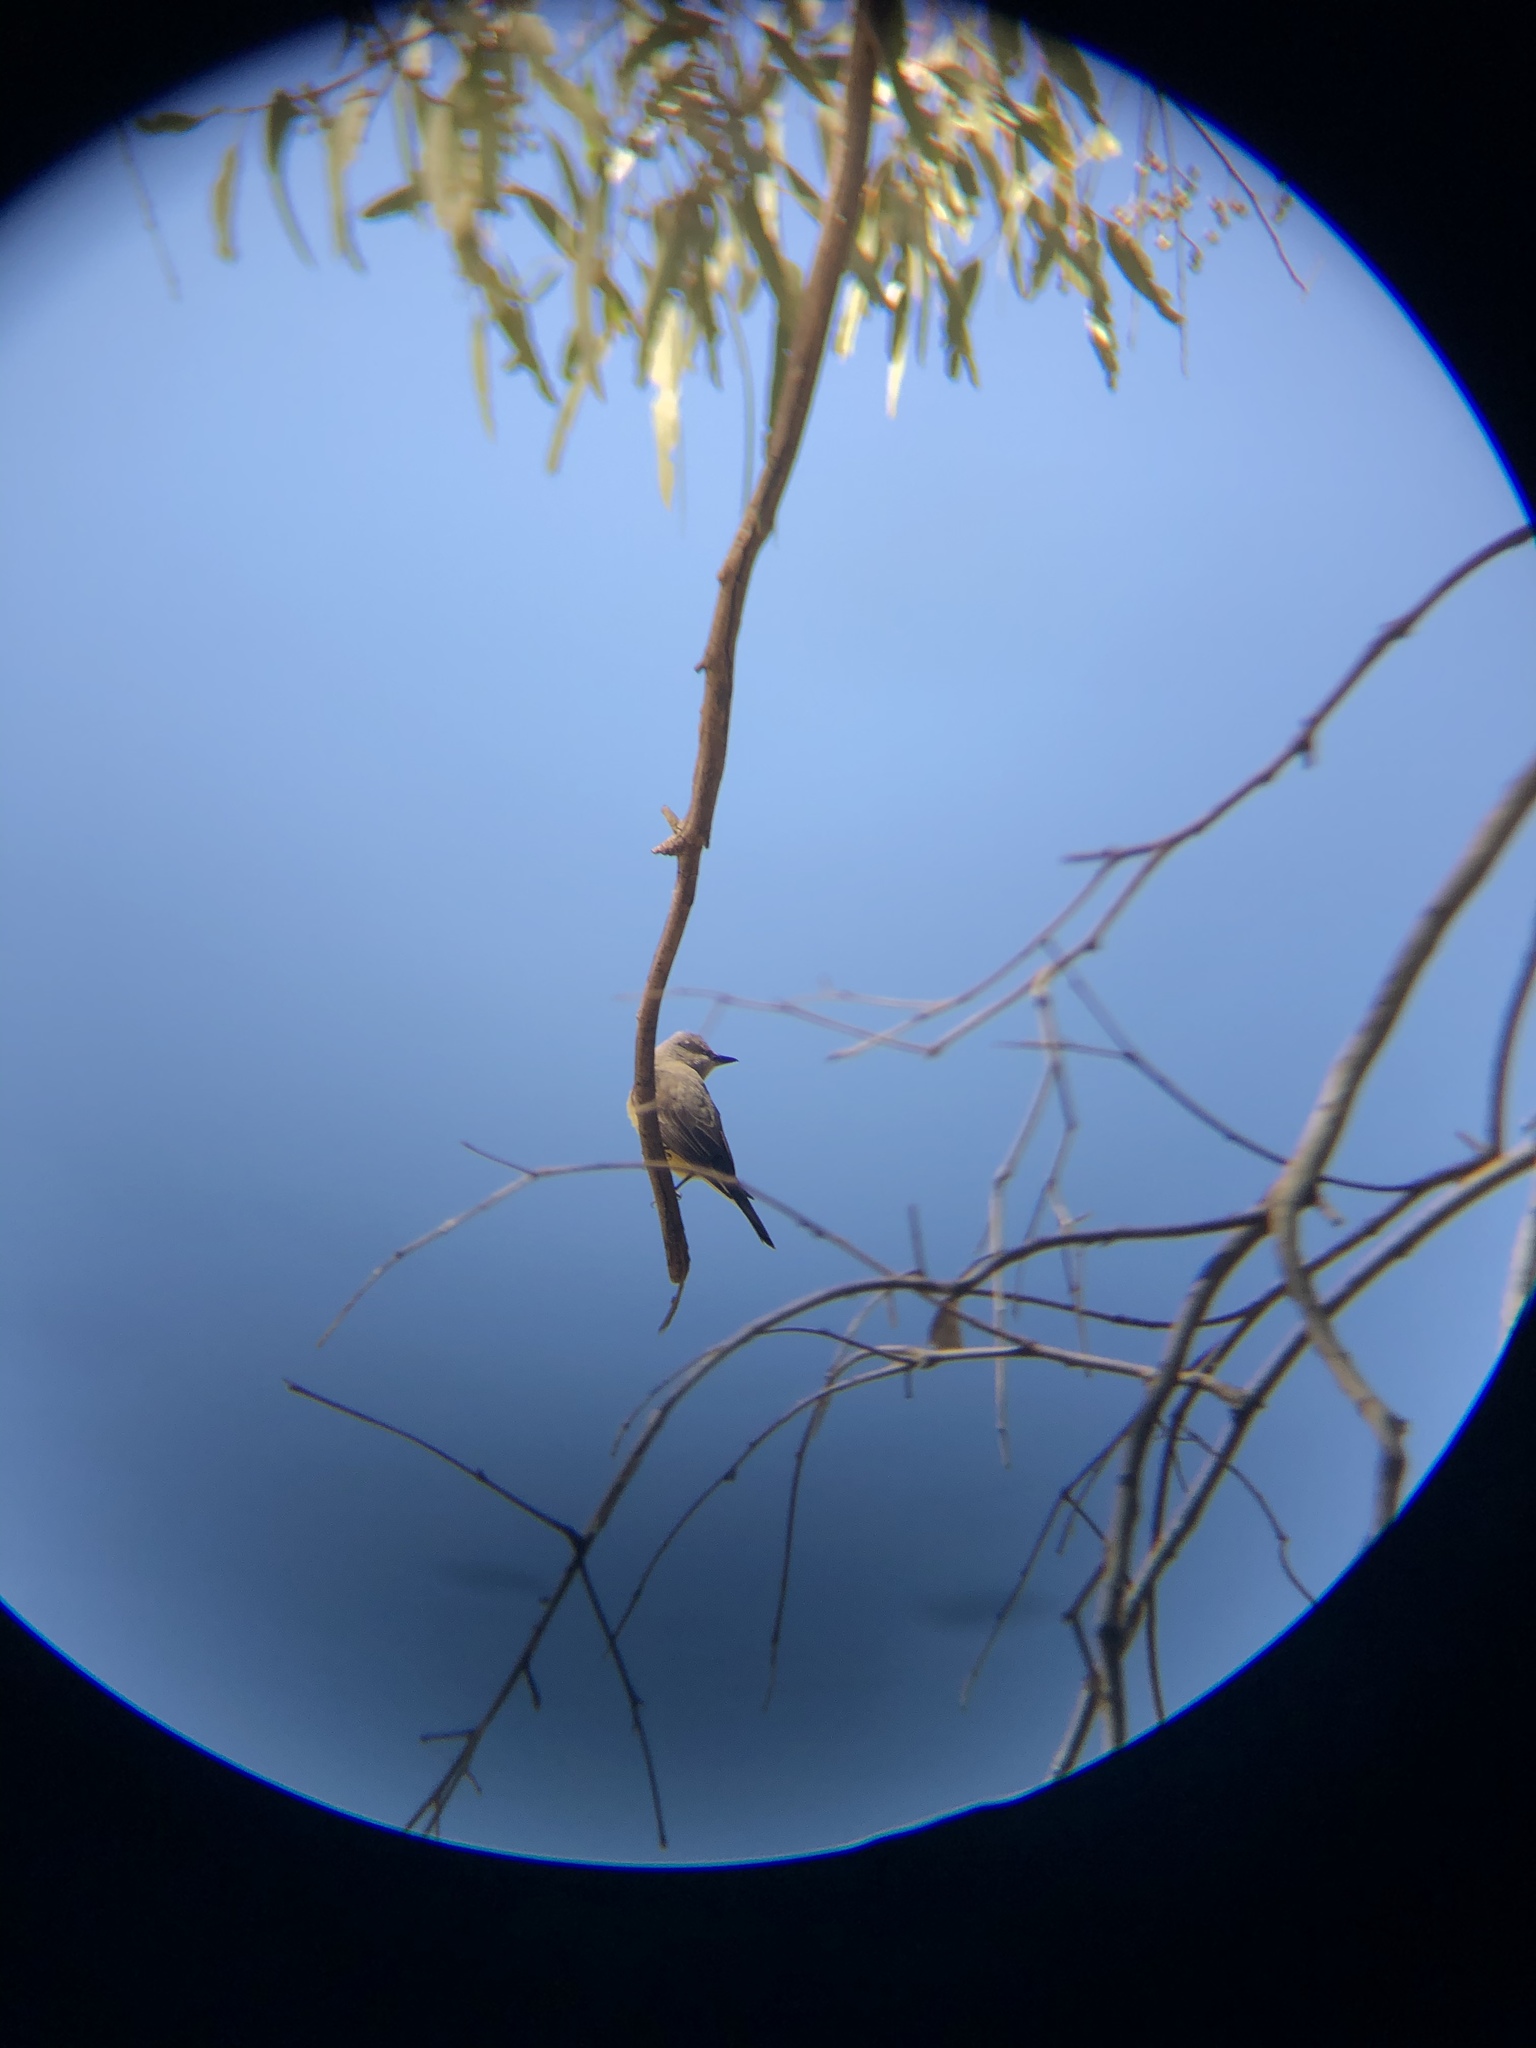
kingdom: Animalia
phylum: Chordata
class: Aves
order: Passeriformes
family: Tyrannidae
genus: Tyrannus
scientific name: Tyrannus verticalis
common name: Western kingbird
